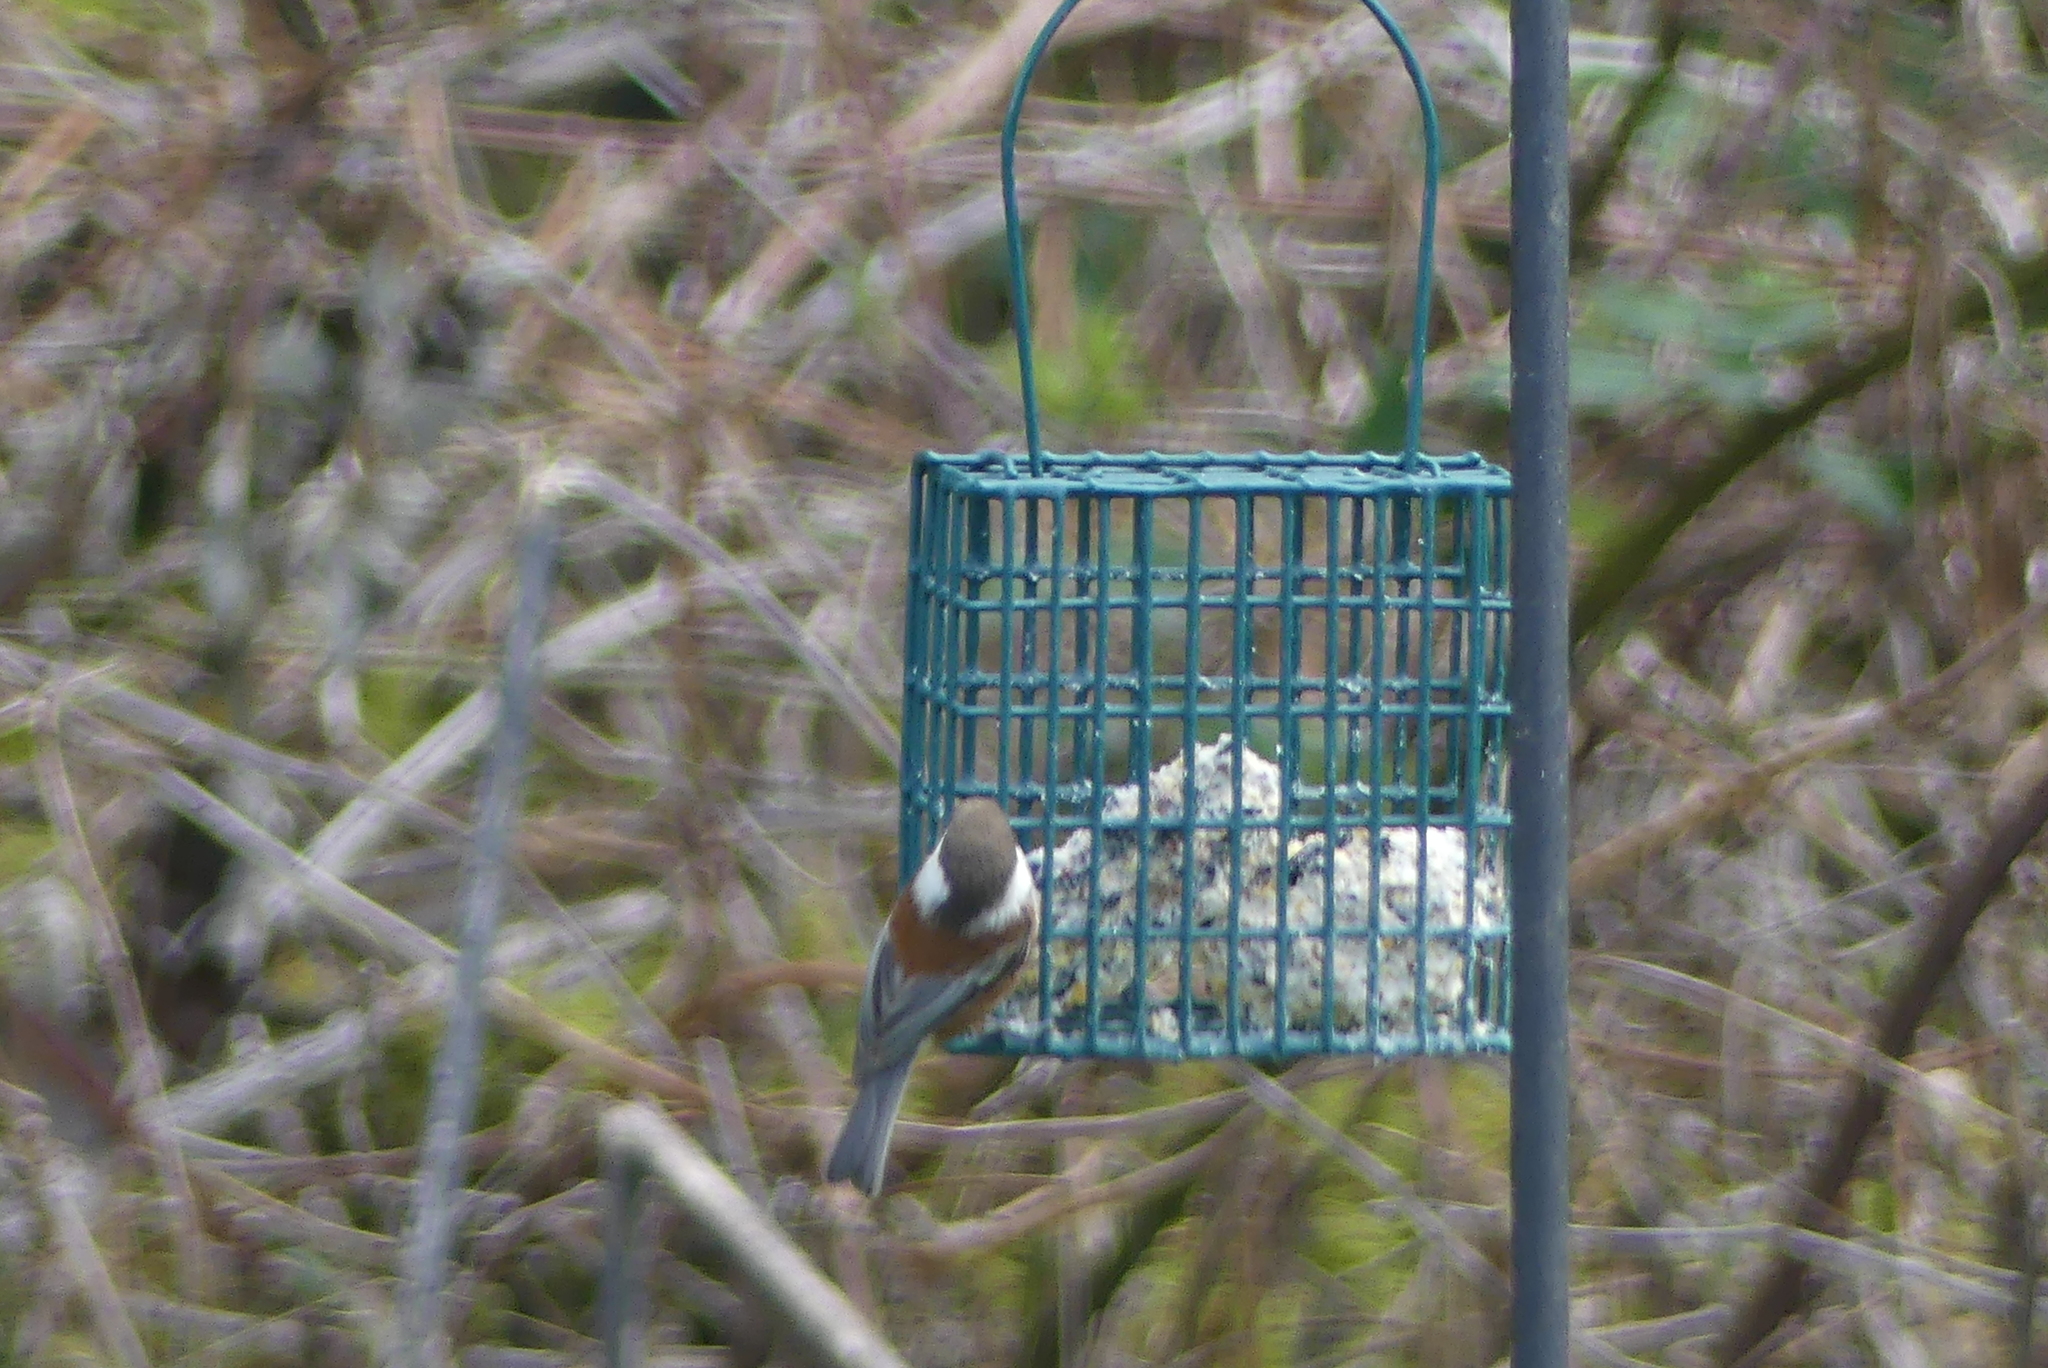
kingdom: Animalia
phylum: Chordata
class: Aves
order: Passeriformes
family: Paridae
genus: Poecile
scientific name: Poecile rufescens
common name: Chestnut-backed chickadee
